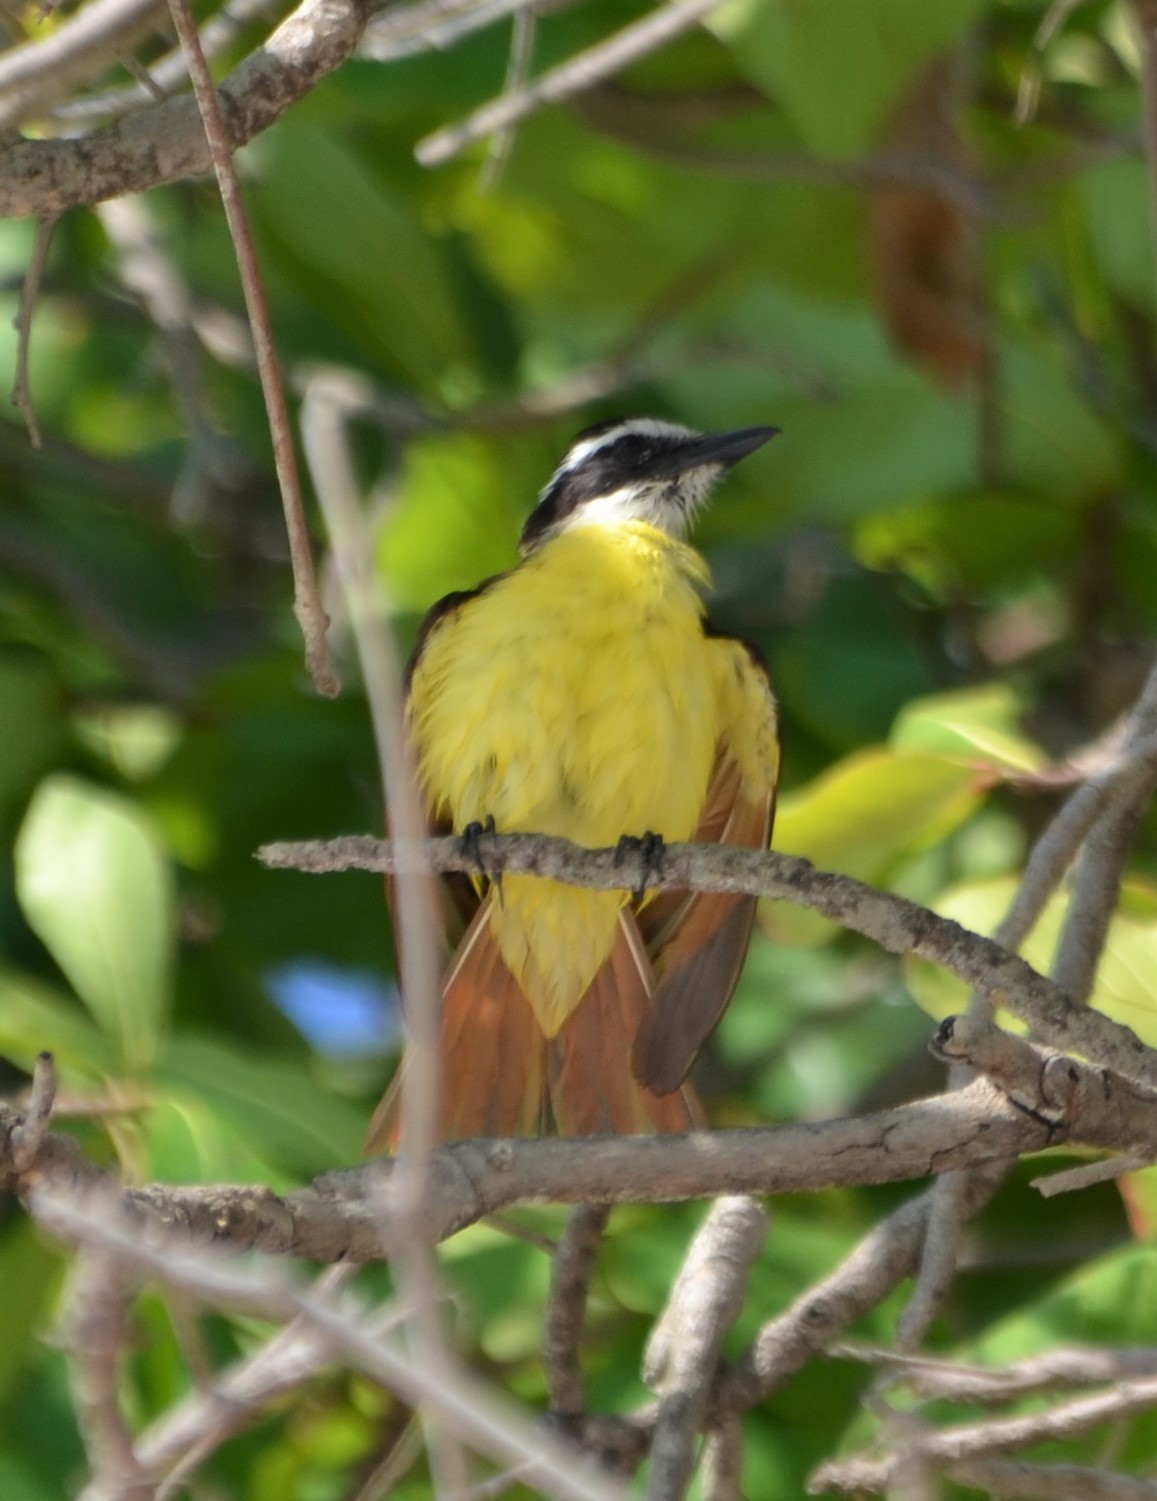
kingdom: Animalia
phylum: Chordata
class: Aves
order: Passeriformes
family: Tyrannidae
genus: Pitangus
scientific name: Pitangus sulphuratus
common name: Great kiskadee
